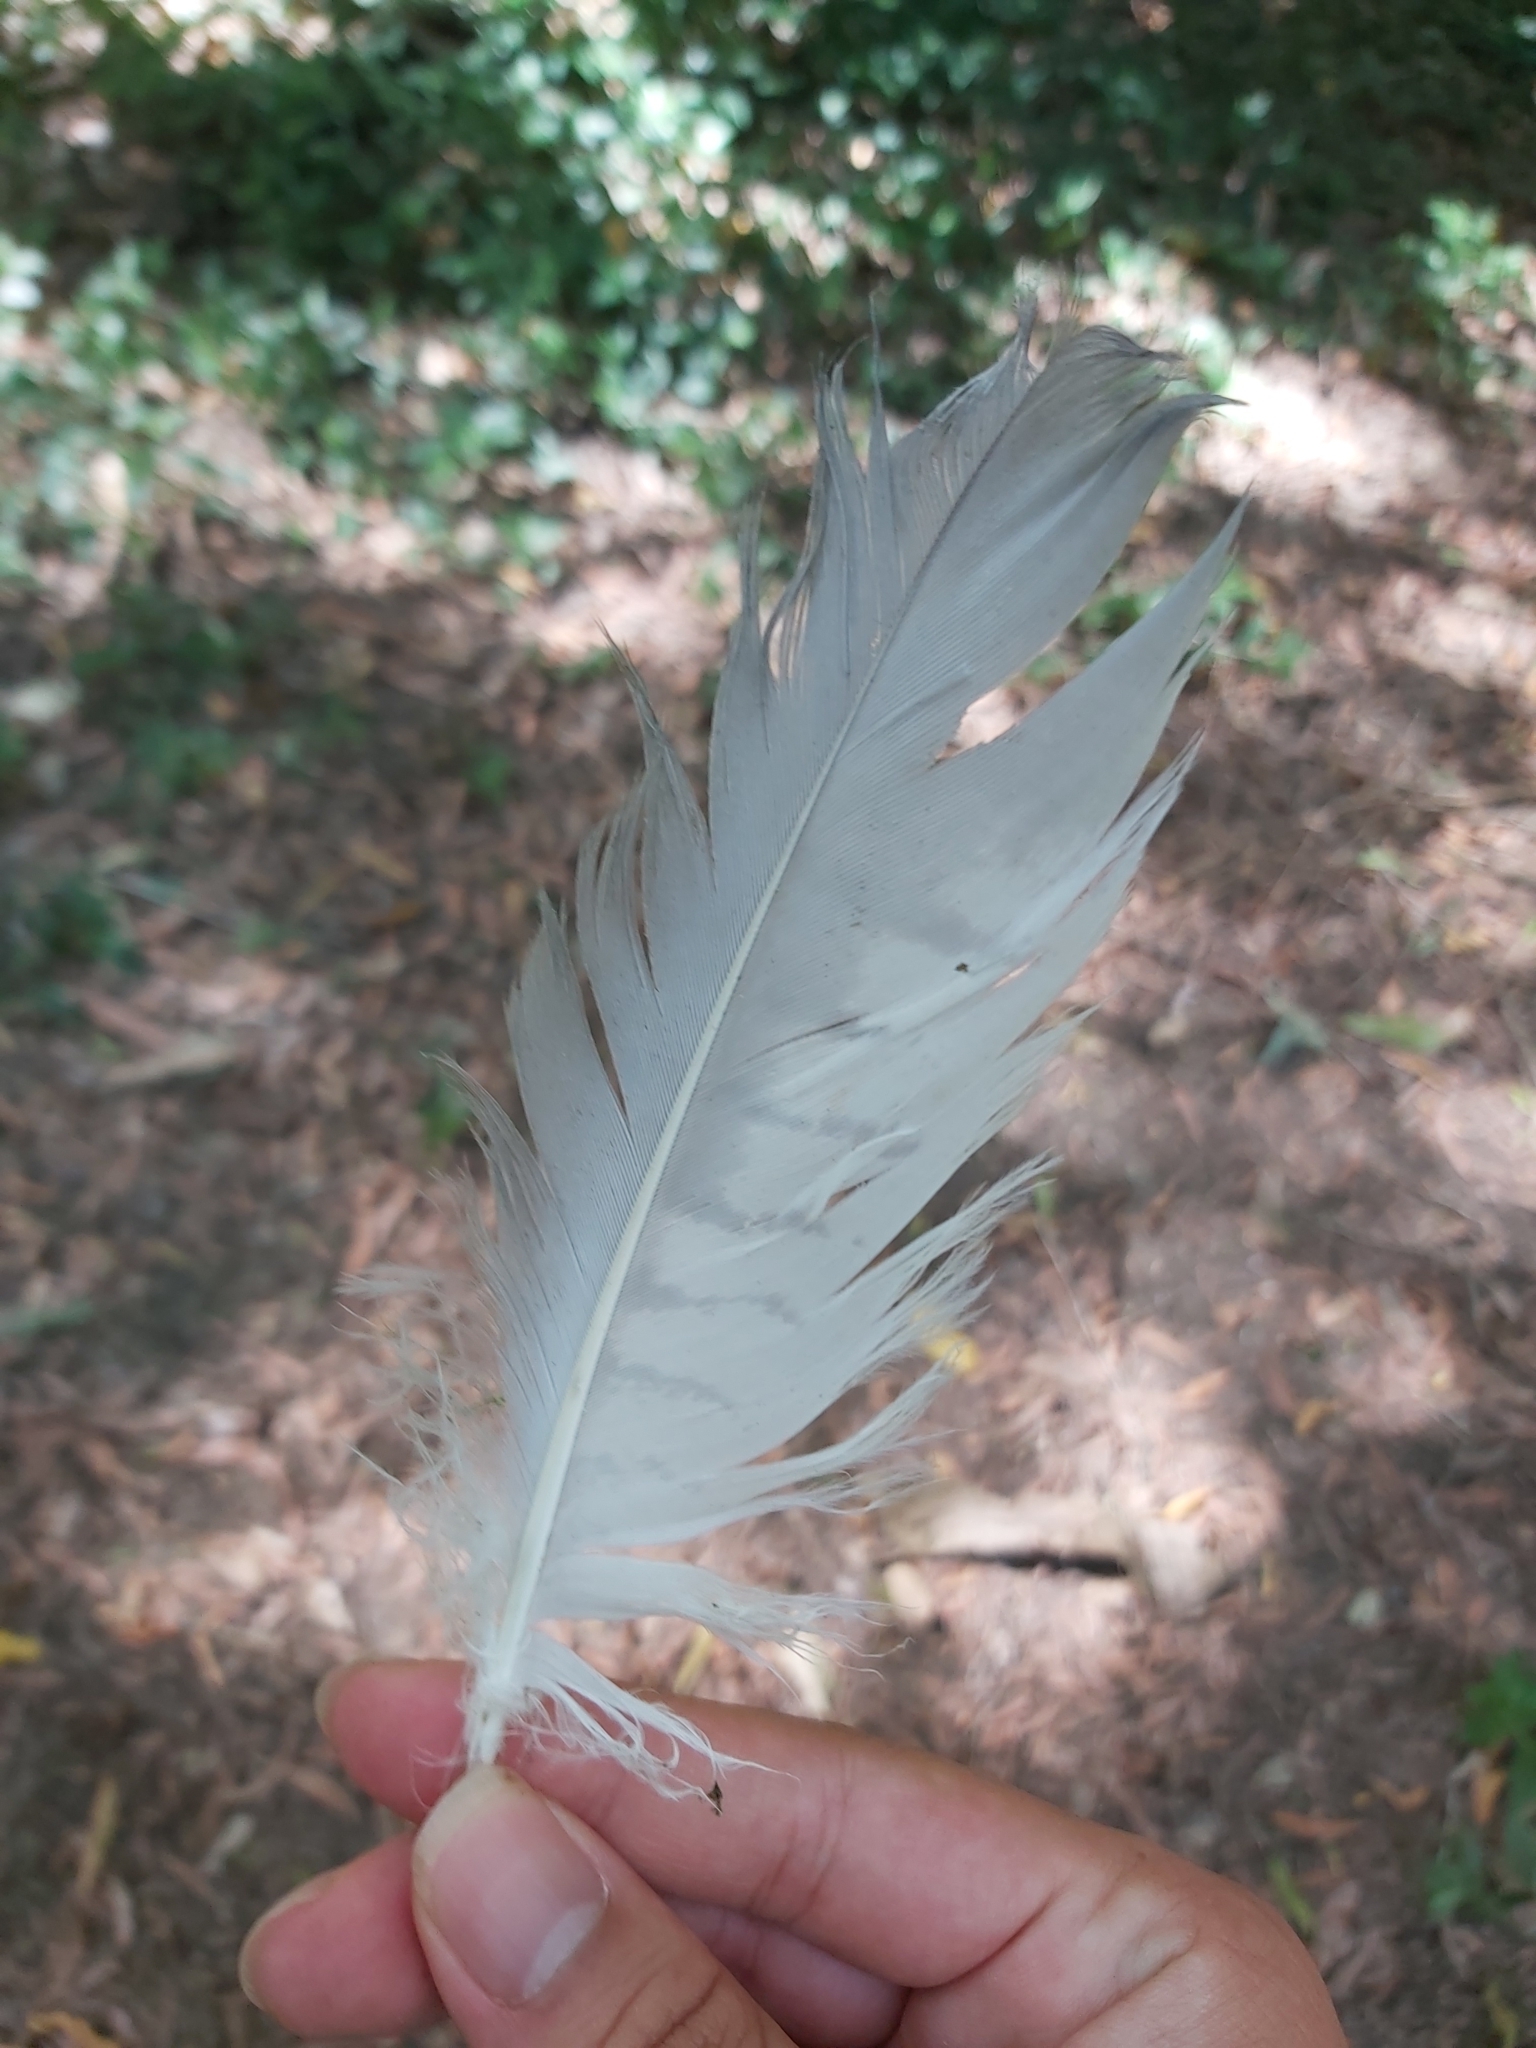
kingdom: Animalia
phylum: Chordata
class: Aves
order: Accipitriformes
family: Accipitridae
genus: Accipiter
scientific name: Accipiter novaehollandiae
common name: Grey goshawk
